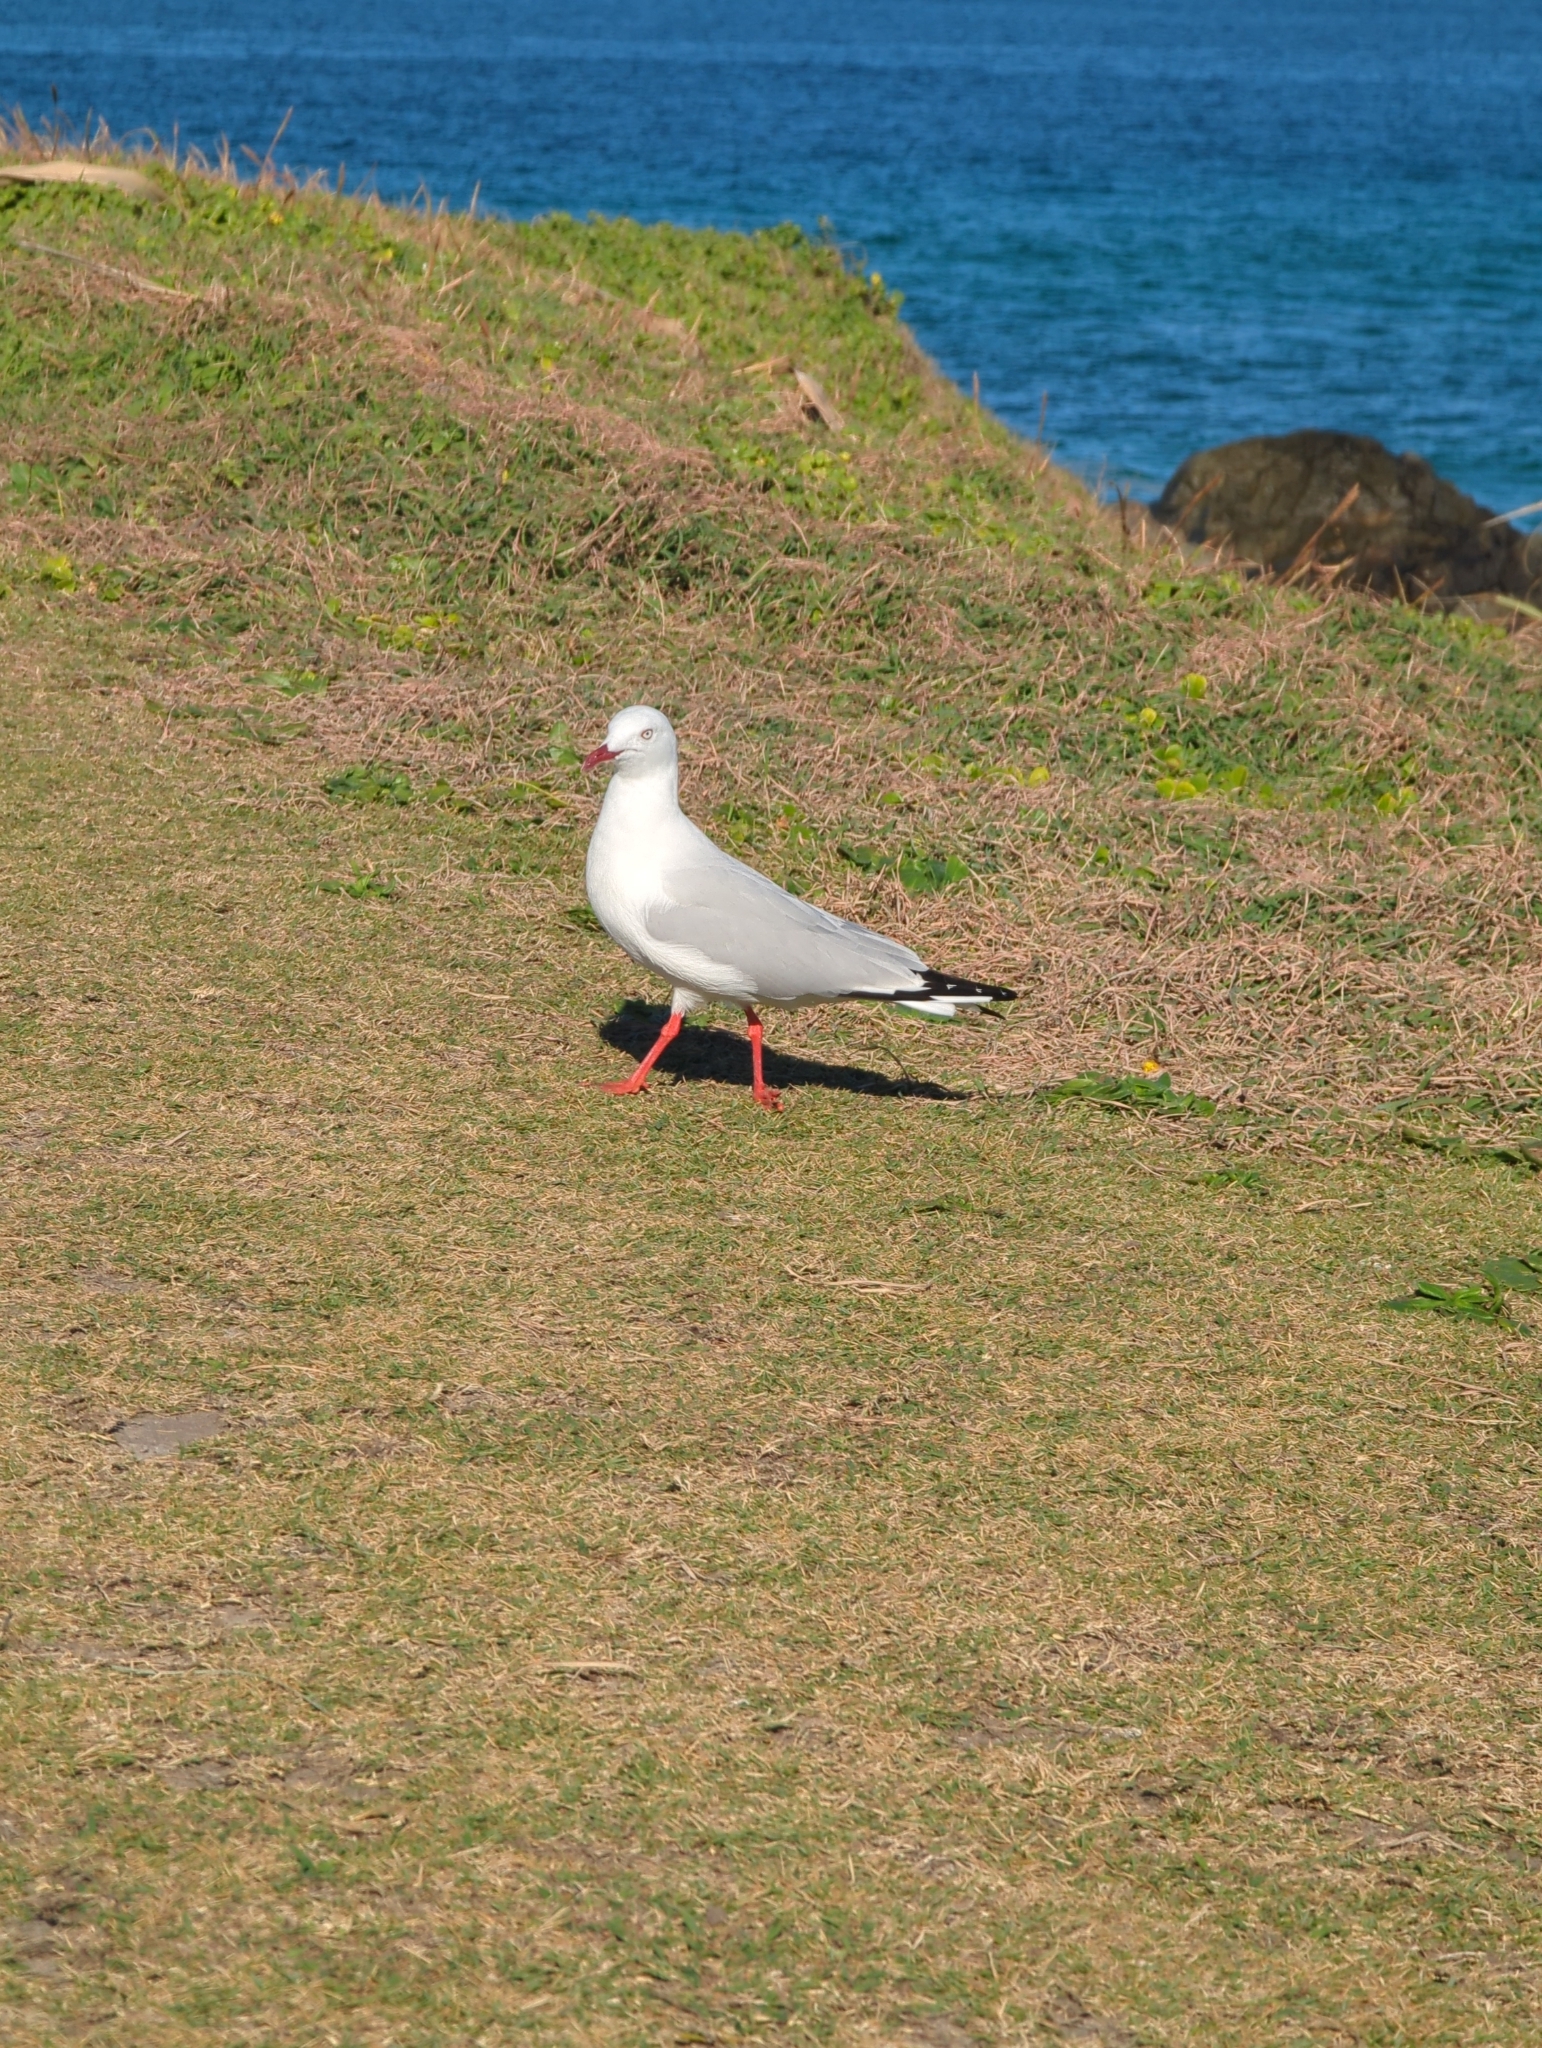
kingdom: Animalia
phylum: Chordata
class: Aves
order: Charadriiformes
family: Laridae
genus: Chroicocephalus
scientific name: Chroicocephalus novaehollandiae
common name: Silver gull
